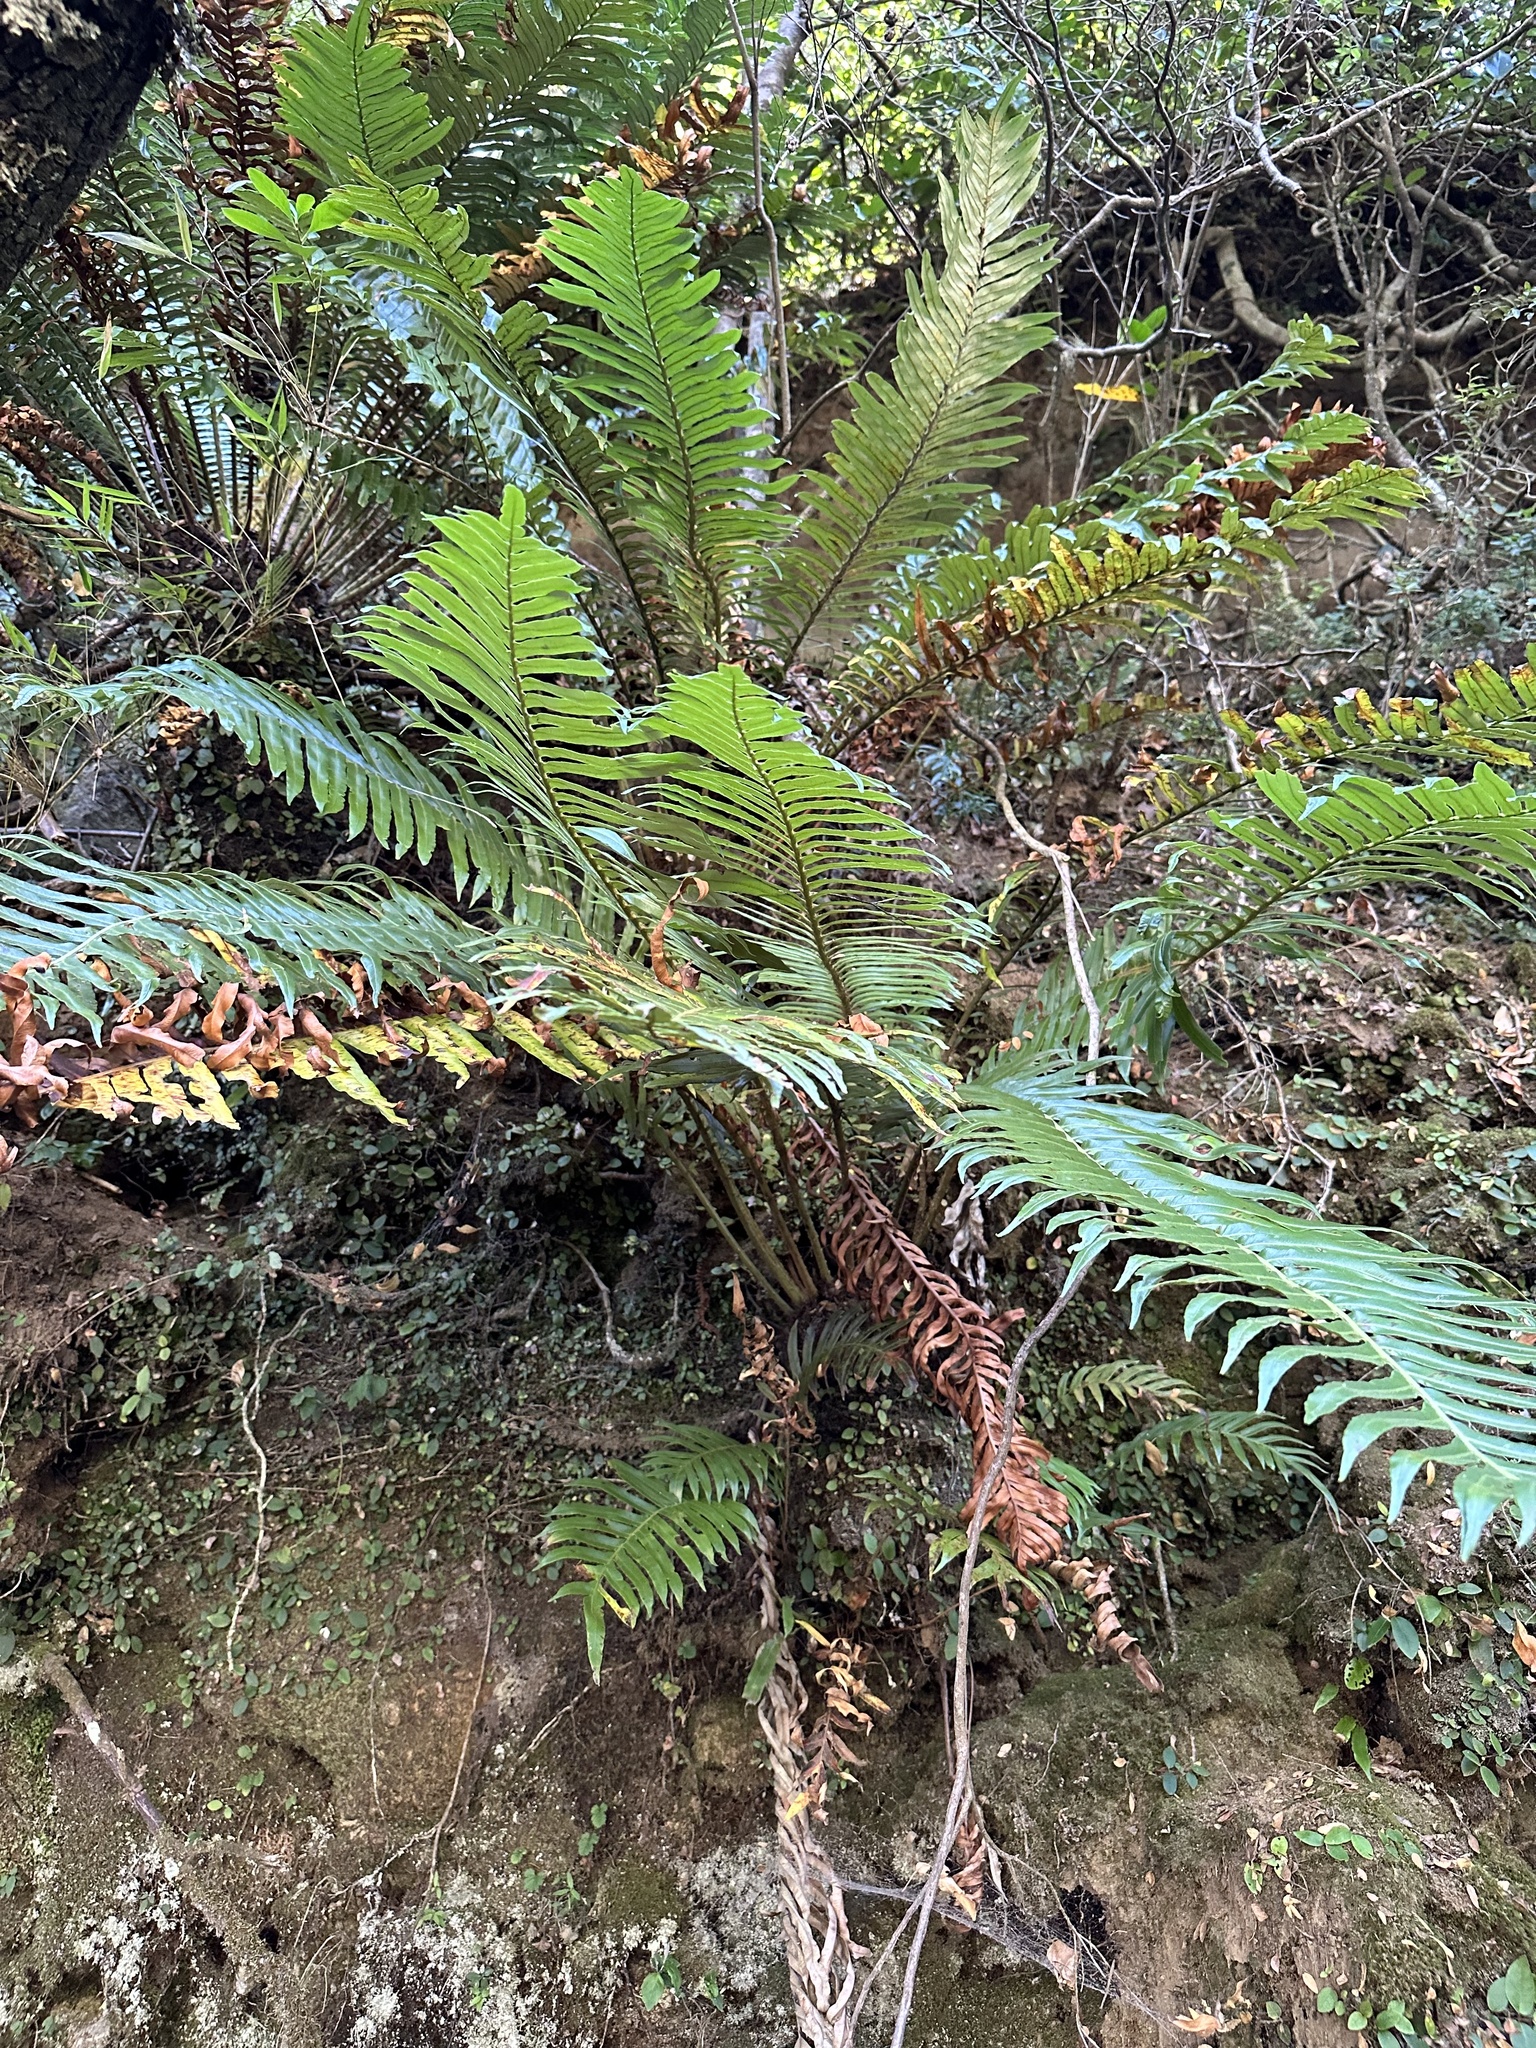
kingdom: Plantae
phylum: Tracheophyta
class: Polypodiopsida
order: Polypodiales
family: Blechnaceae
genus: Lomariocycas
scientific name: Lomariocycas magellanica
